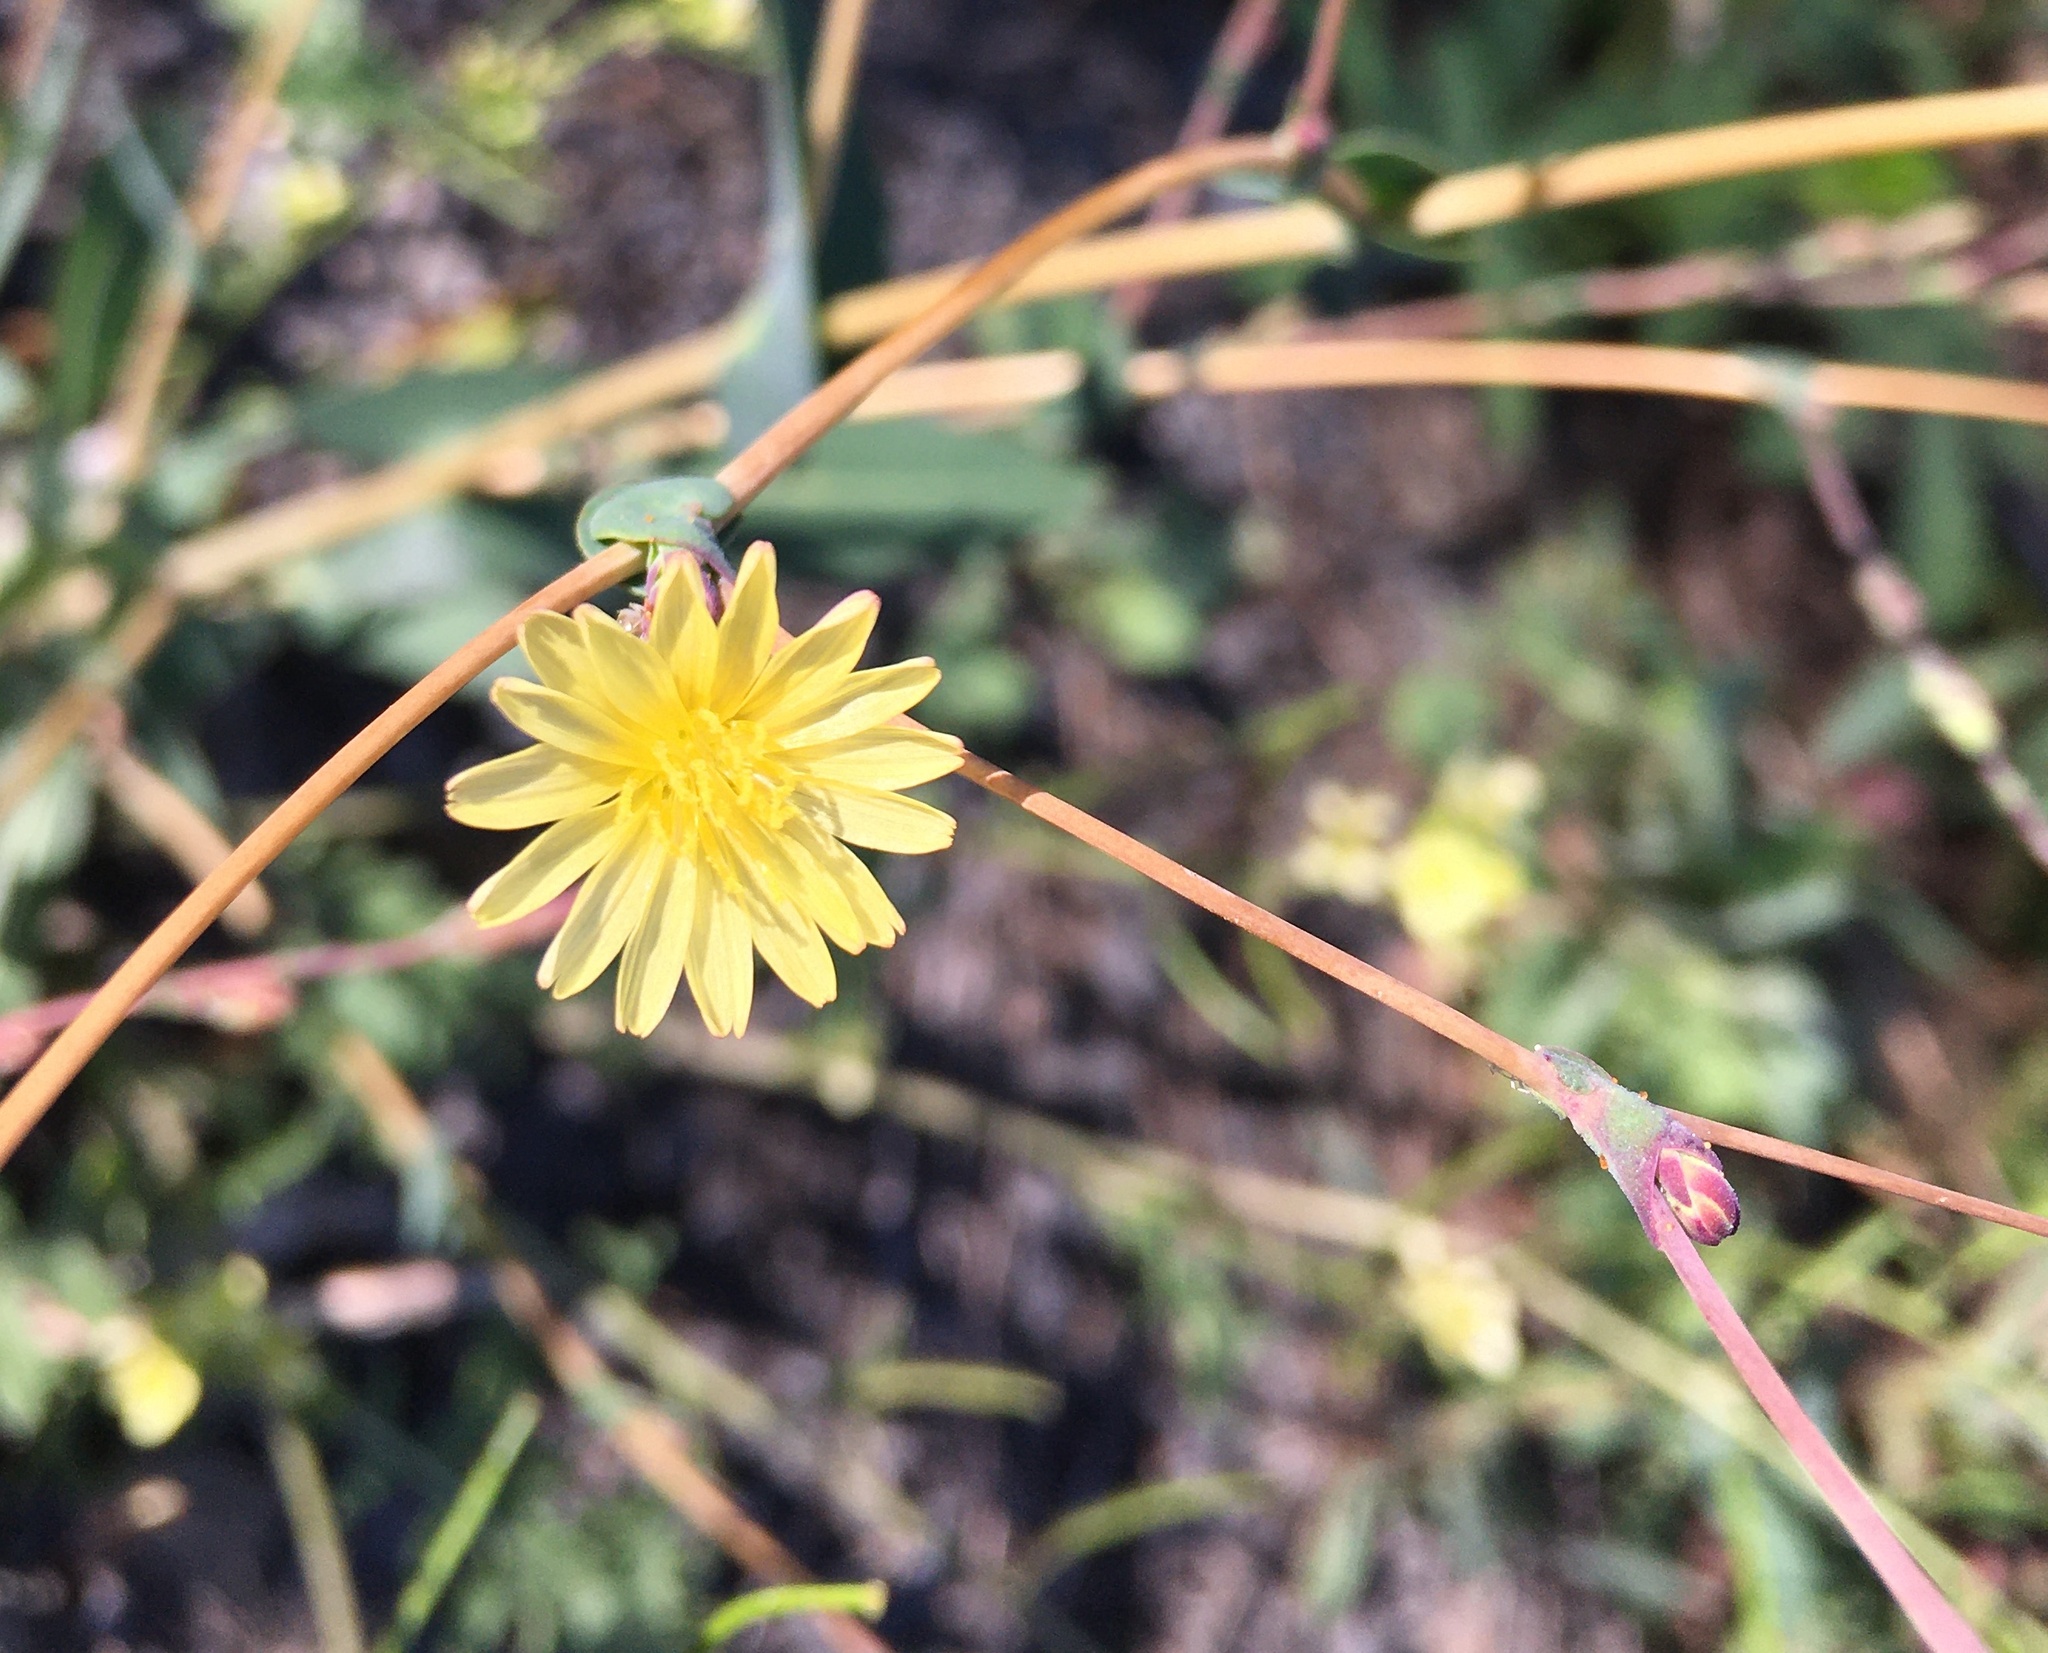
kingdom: Plantae
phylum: Tracheophyta
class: Magnoliopsida
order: Asterales
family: Asteraceae
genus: Lactuca
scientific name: Lactuca serriola
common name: Prickly lettuce
